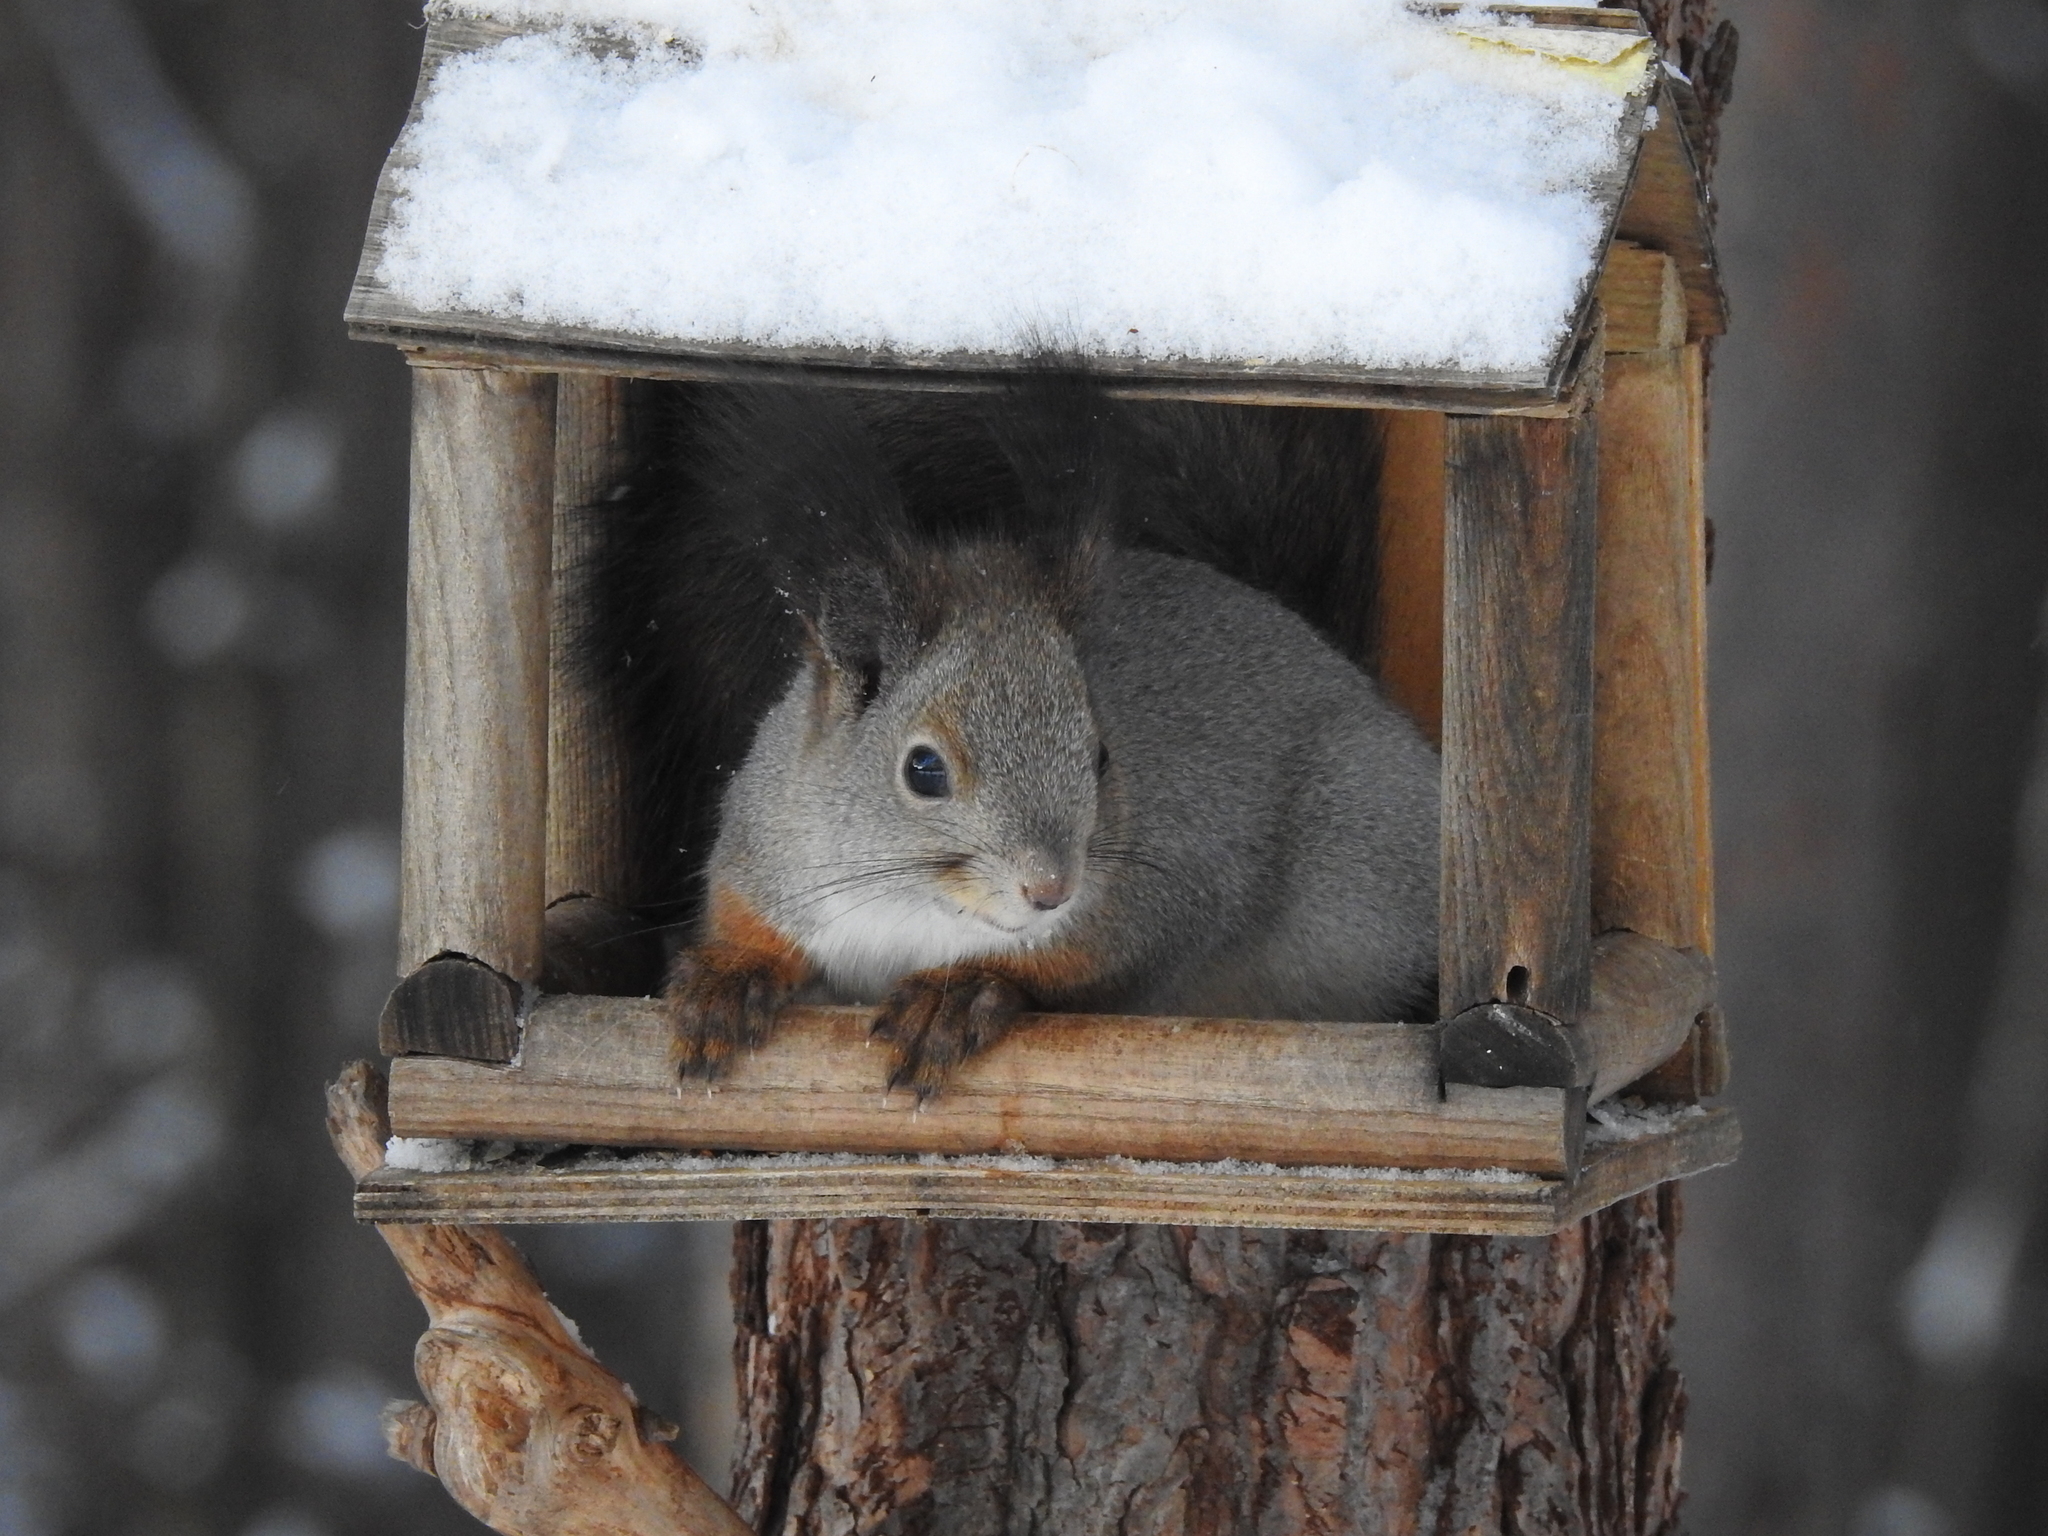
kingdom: Animalia
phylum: Chordata
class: Mammalia
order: Rodentia
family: Sciuridae
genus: Sciurus
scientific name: Sciurus vulgaris
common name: Eurasian red squirrel
